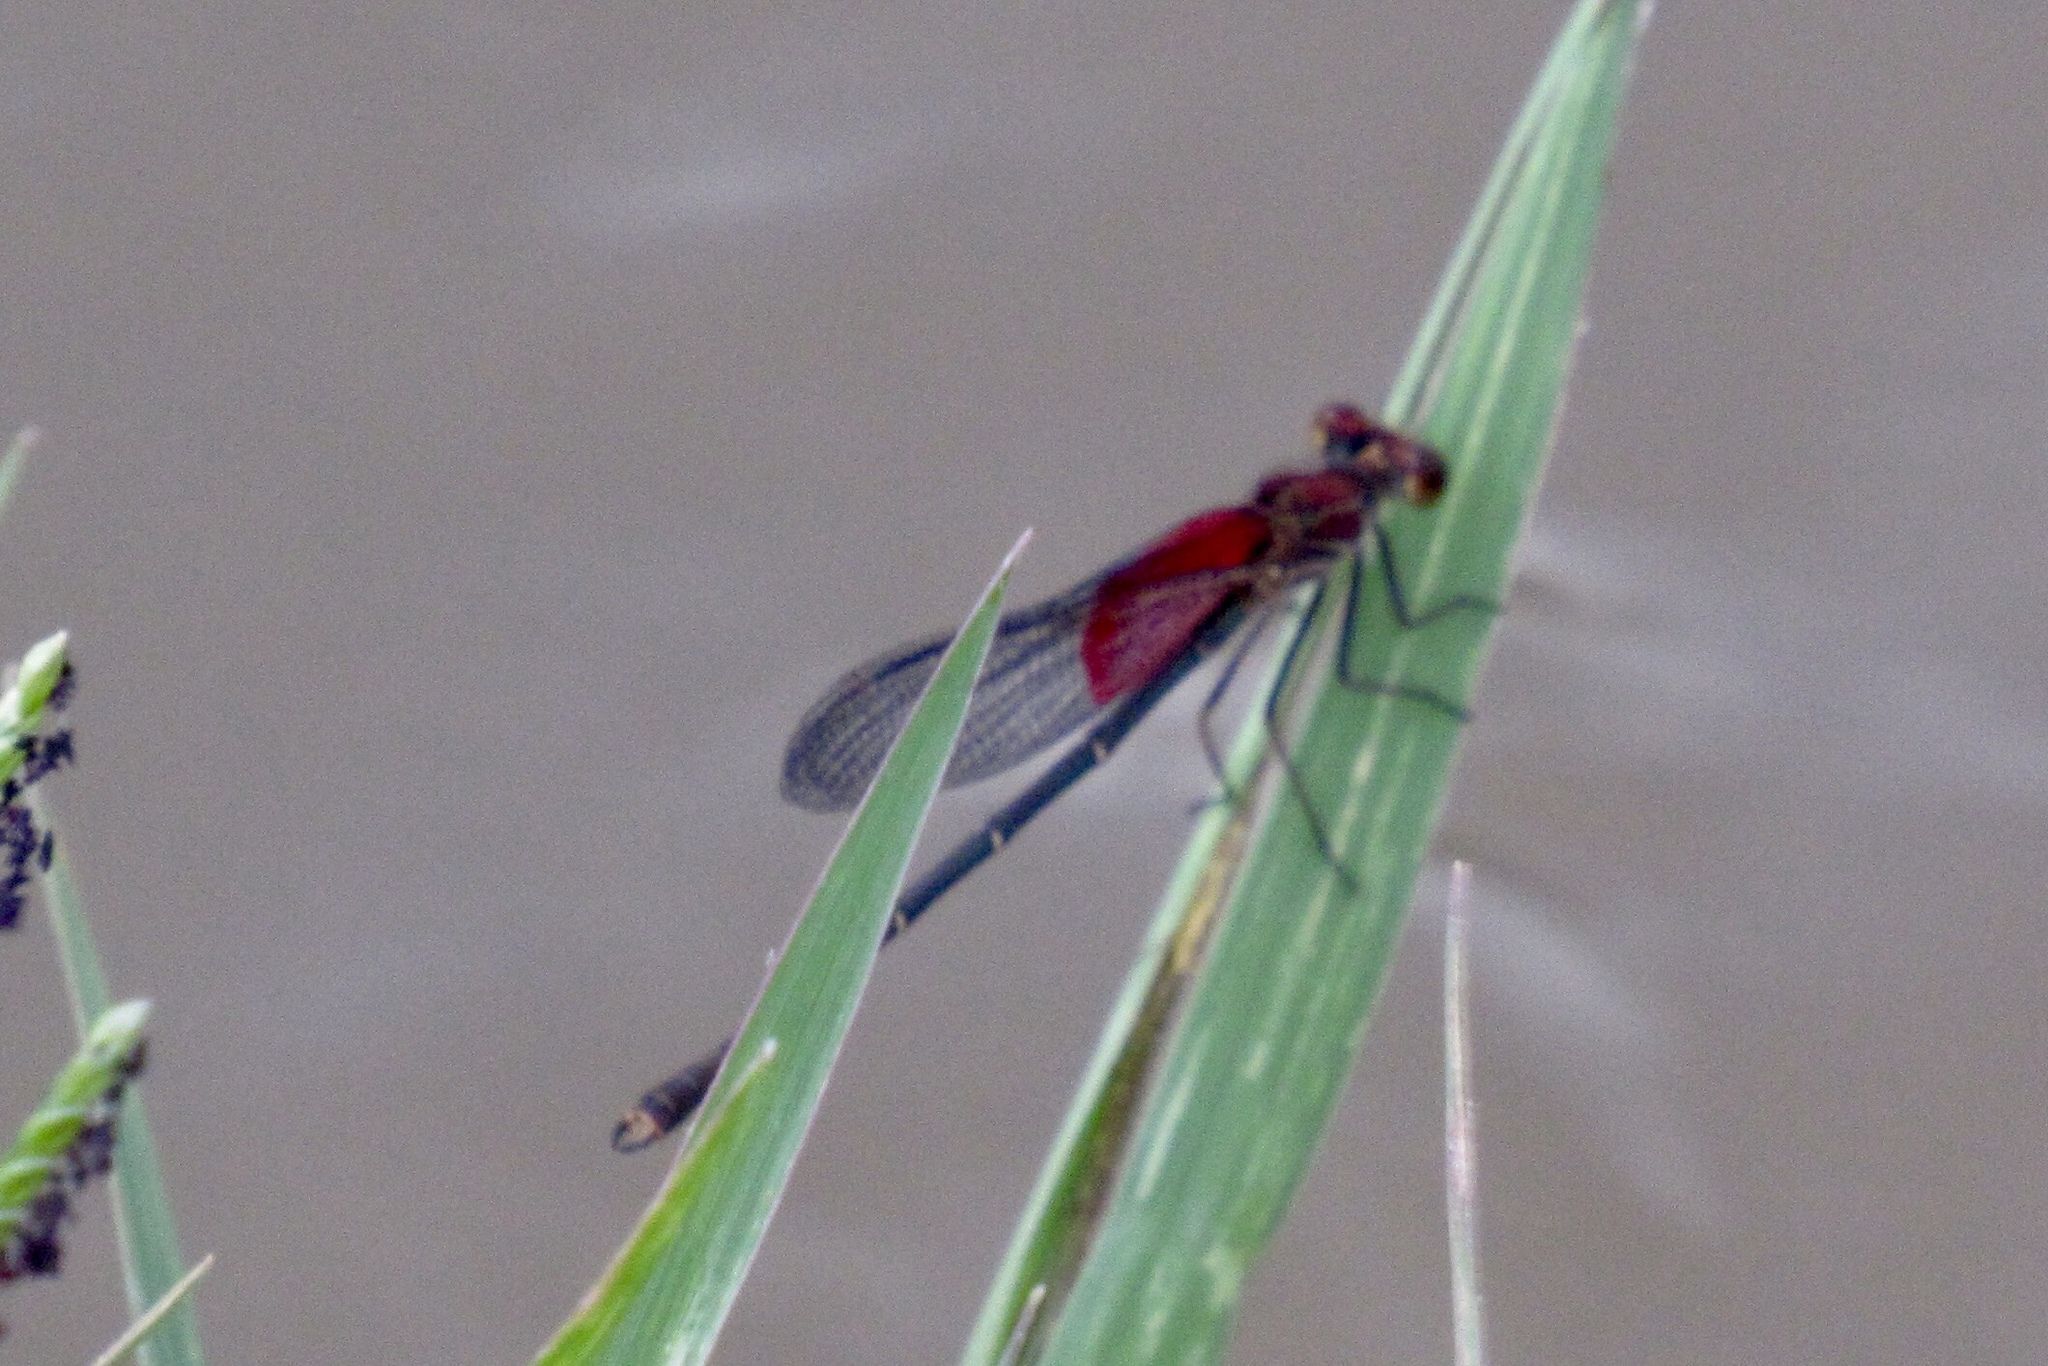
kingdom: Animalia
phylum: Arthropoda
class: Insecta
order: Odonata
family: Calopterygidae
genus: Hetaerina
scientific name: Hetaerina americana
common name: American rubyspot
